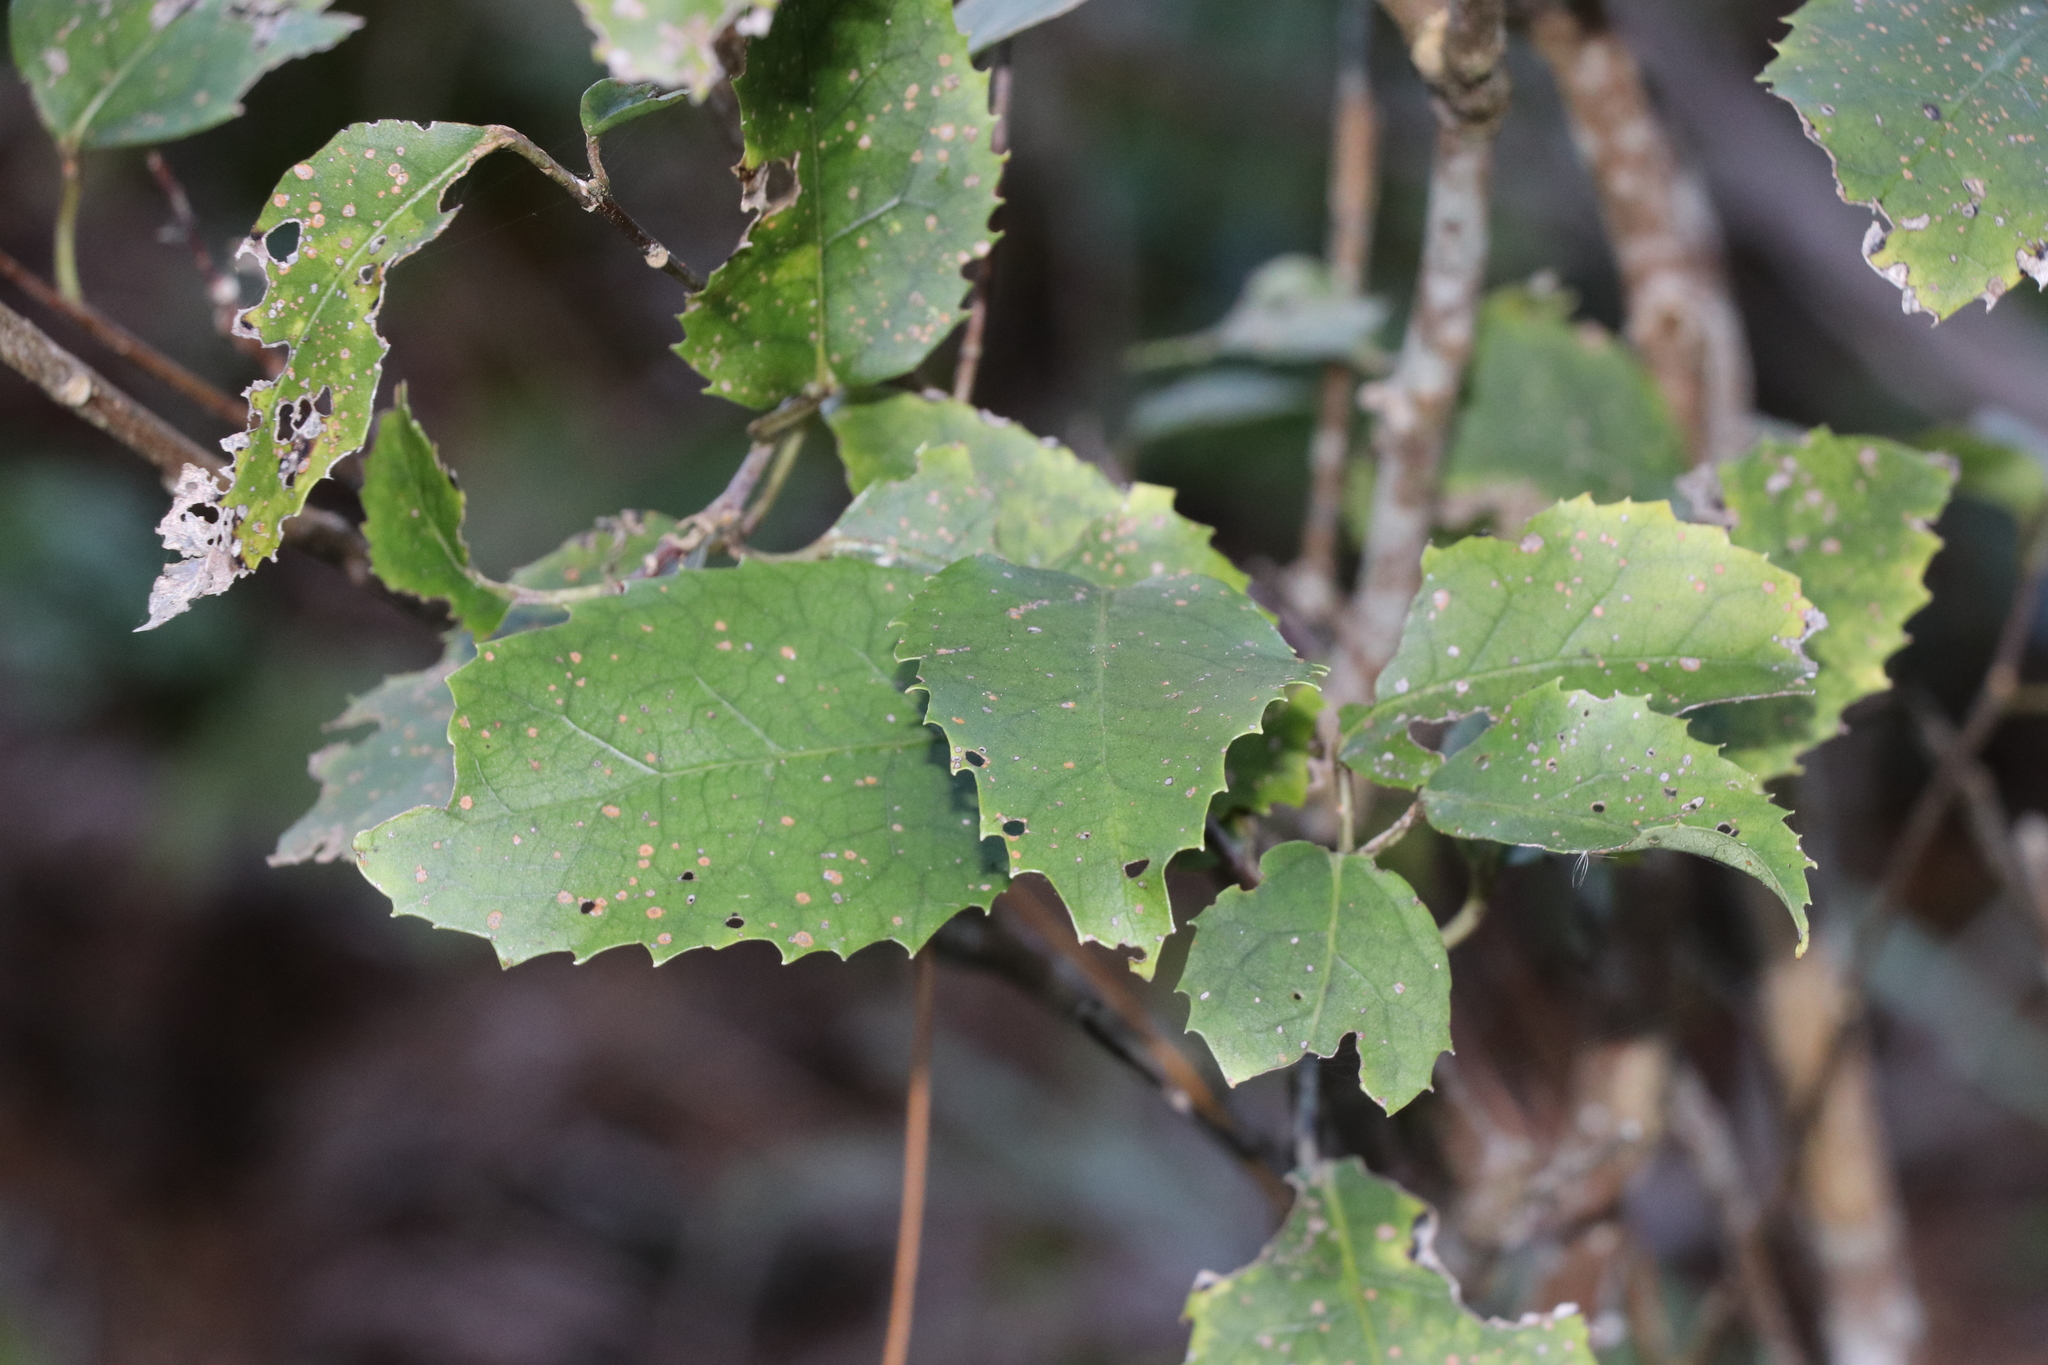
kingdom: Plantae
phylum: Tracheophyta
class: Magnoliopsida
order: Malvales
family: Malvaceae
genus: Hoheria
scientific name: Hoheria populnea
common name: Lacebark
